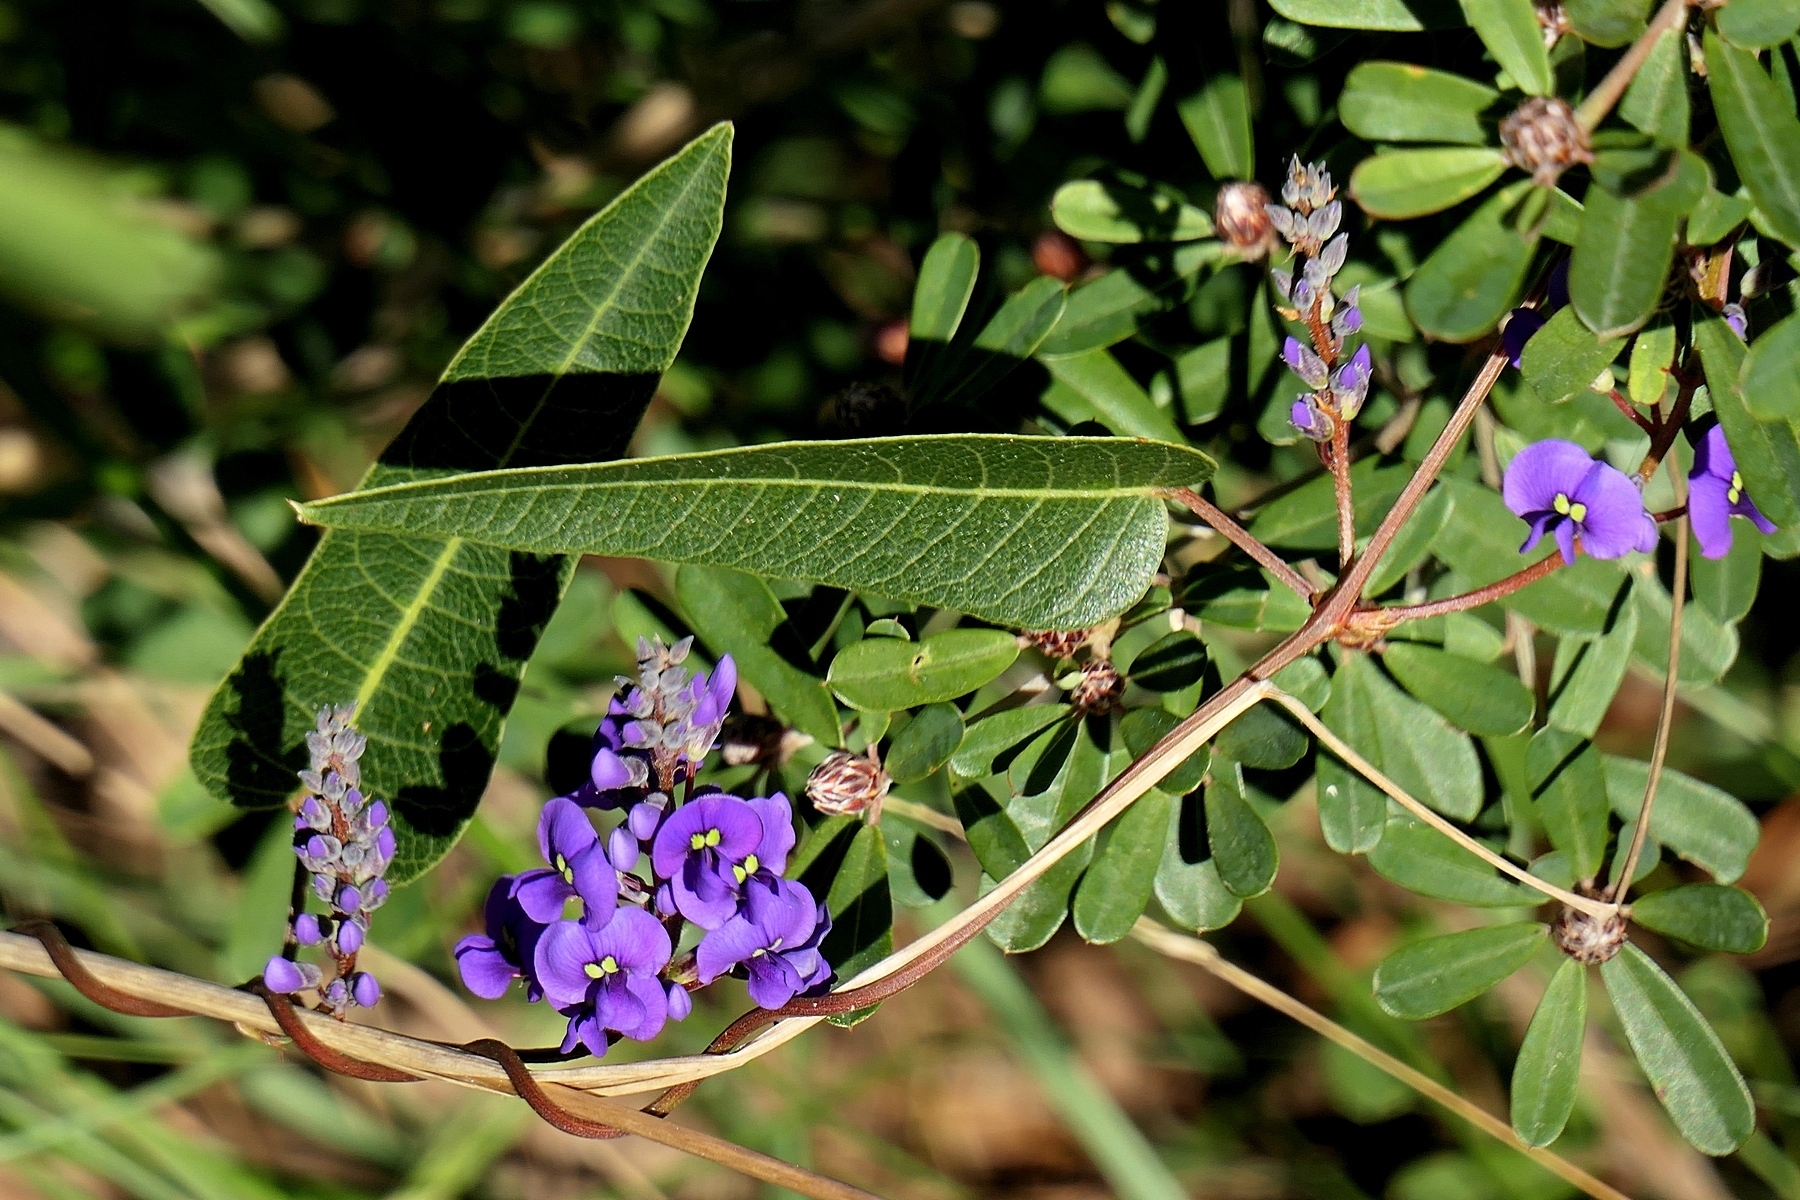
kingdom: Plantae
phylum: Tracheophyta
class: Magnoliopsida
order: Fabales
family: Fabaceae
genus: Hardenbergia
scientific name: Hardenbergia violacea
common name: Coral-pea
